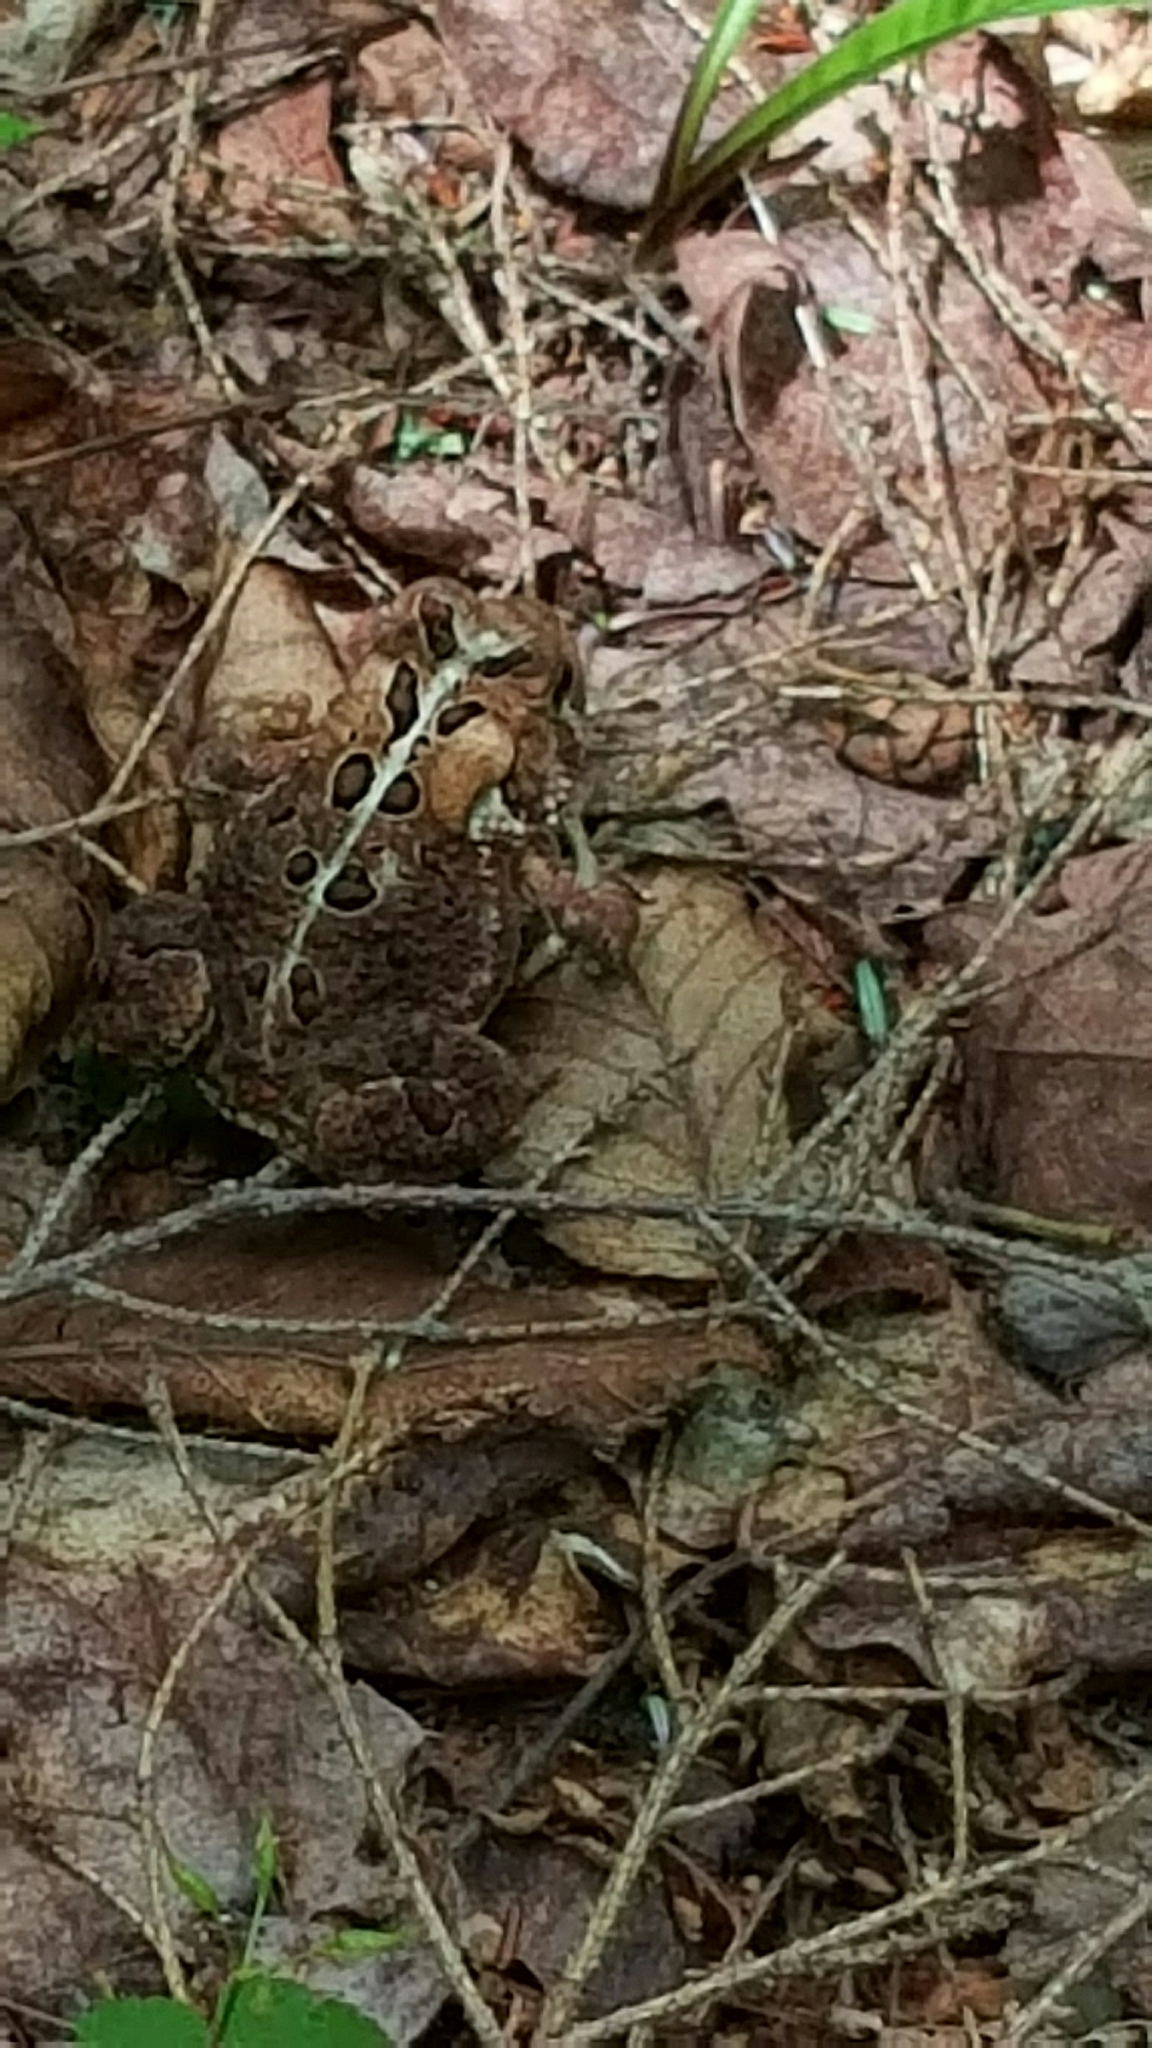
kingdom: Animalia
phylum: Chordata
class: Amphibia
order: Anura
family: Bufonidae
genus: Anaxyrus
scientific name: Anaxyrus americanus
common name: American toad
